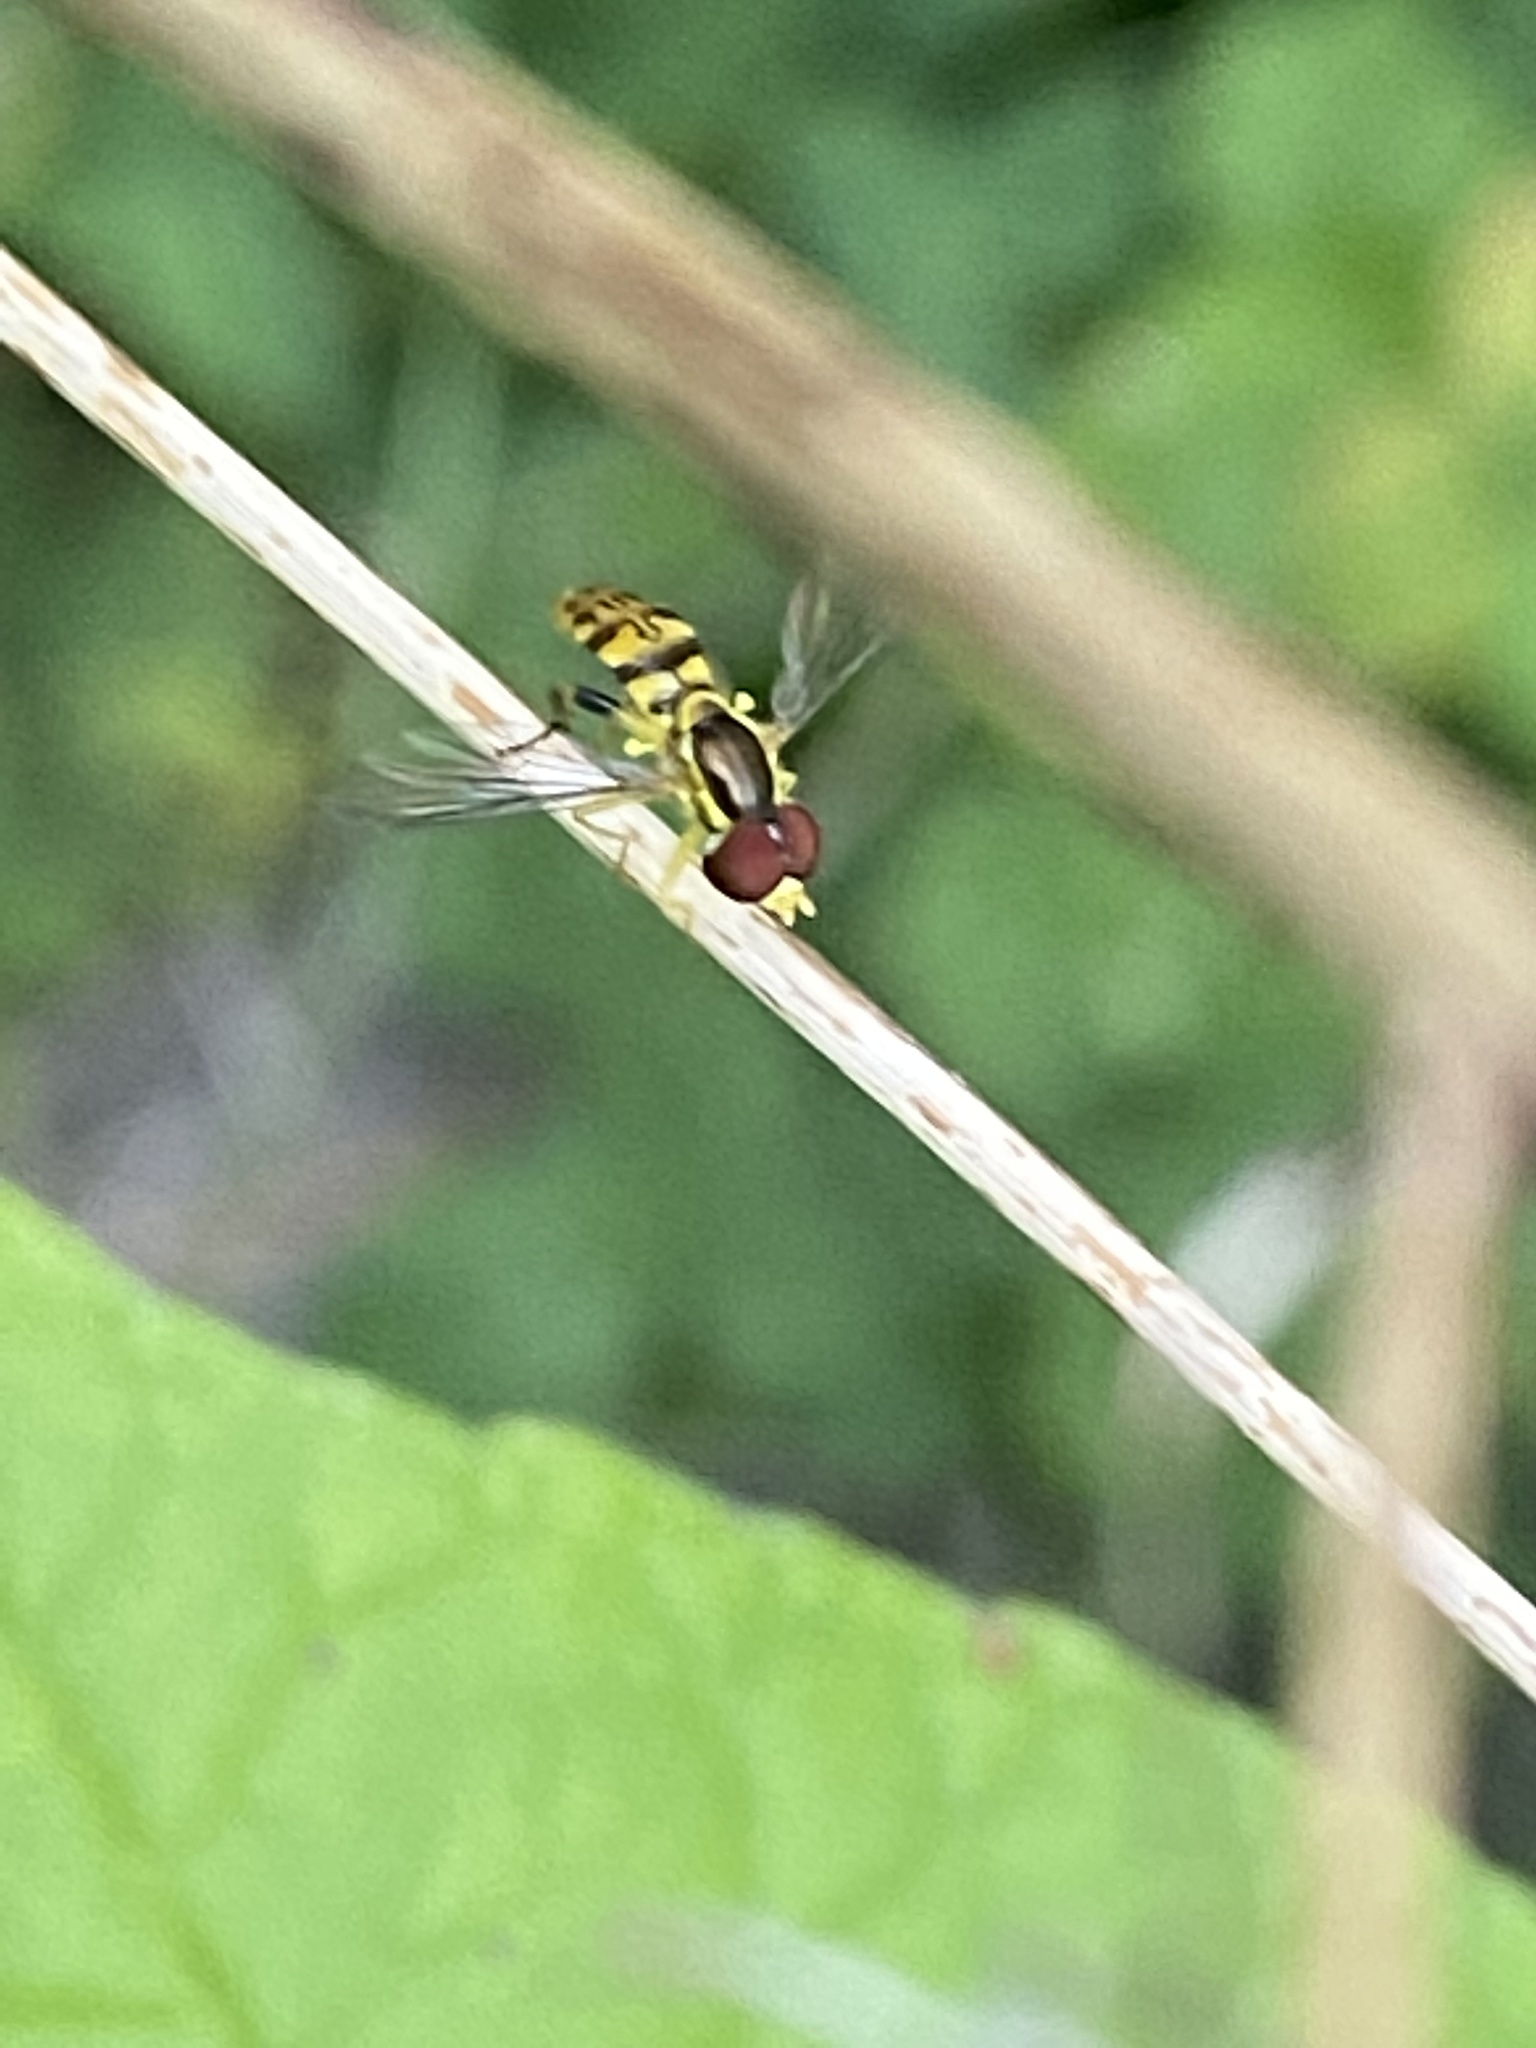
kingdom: Animalia
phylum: Arthropoda
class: Insecta
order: Diptera
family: Syrphidae
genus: Toxomerus
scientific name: Toxomerus geminatus
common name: Eastern calligrapher
